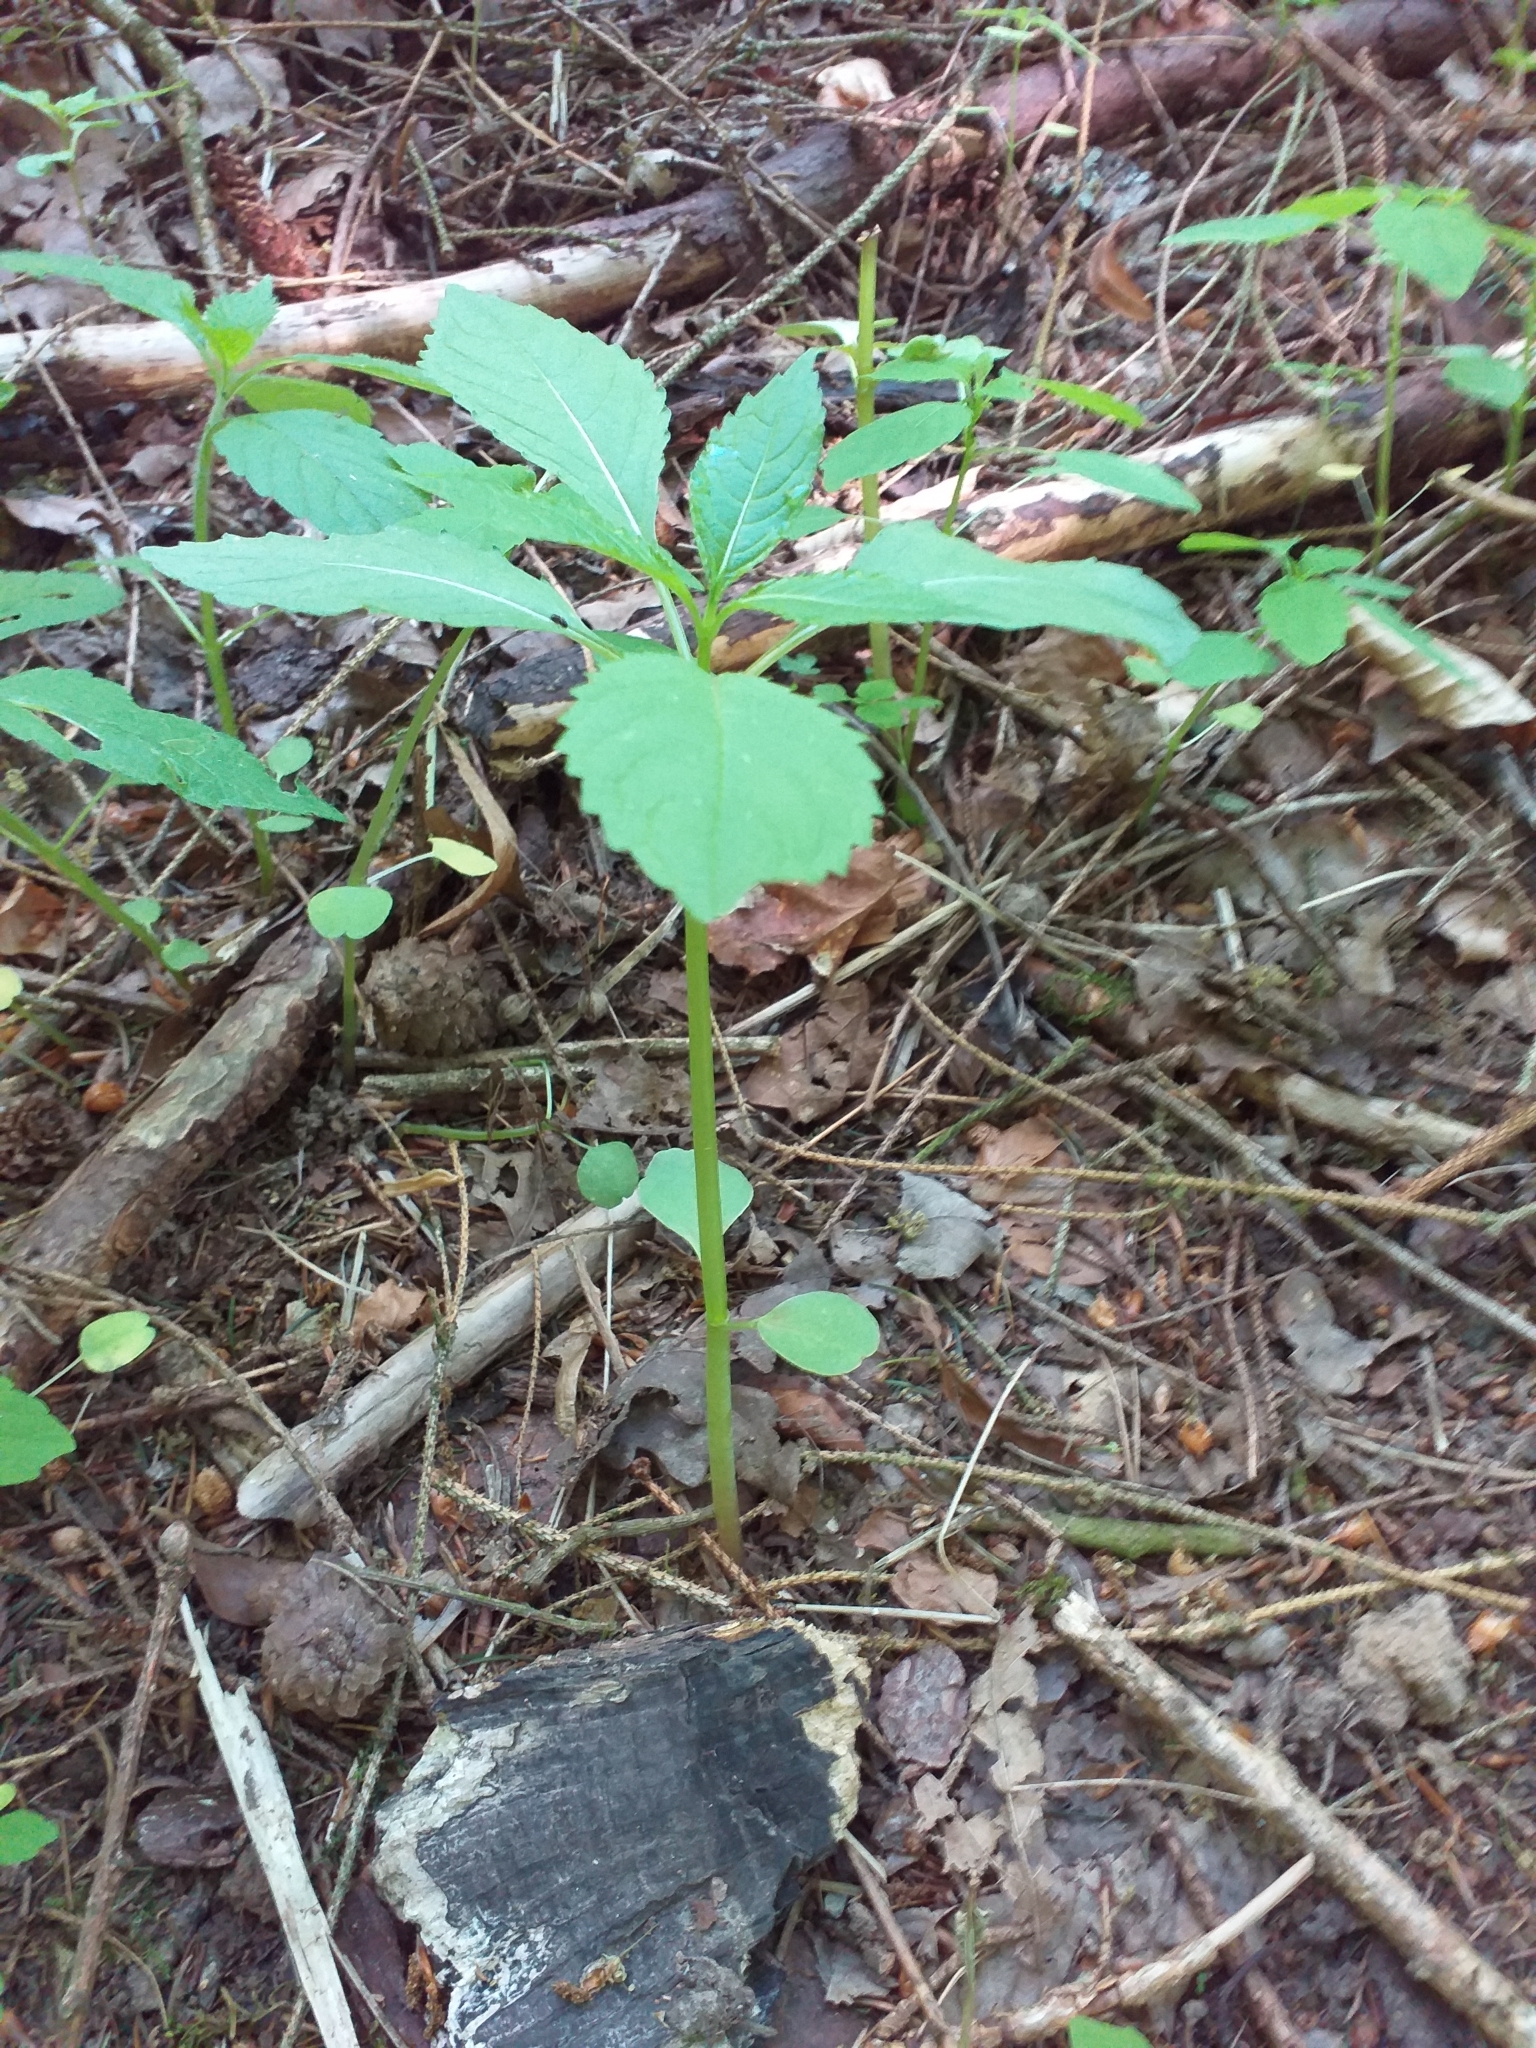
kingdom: Plantae
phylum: Tracheophyta
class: Magnoliopsida
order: Ericales
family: Balsaminaceae
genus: Impatiens
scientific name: Impatiens glandulifera
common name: Himalayan balsam
